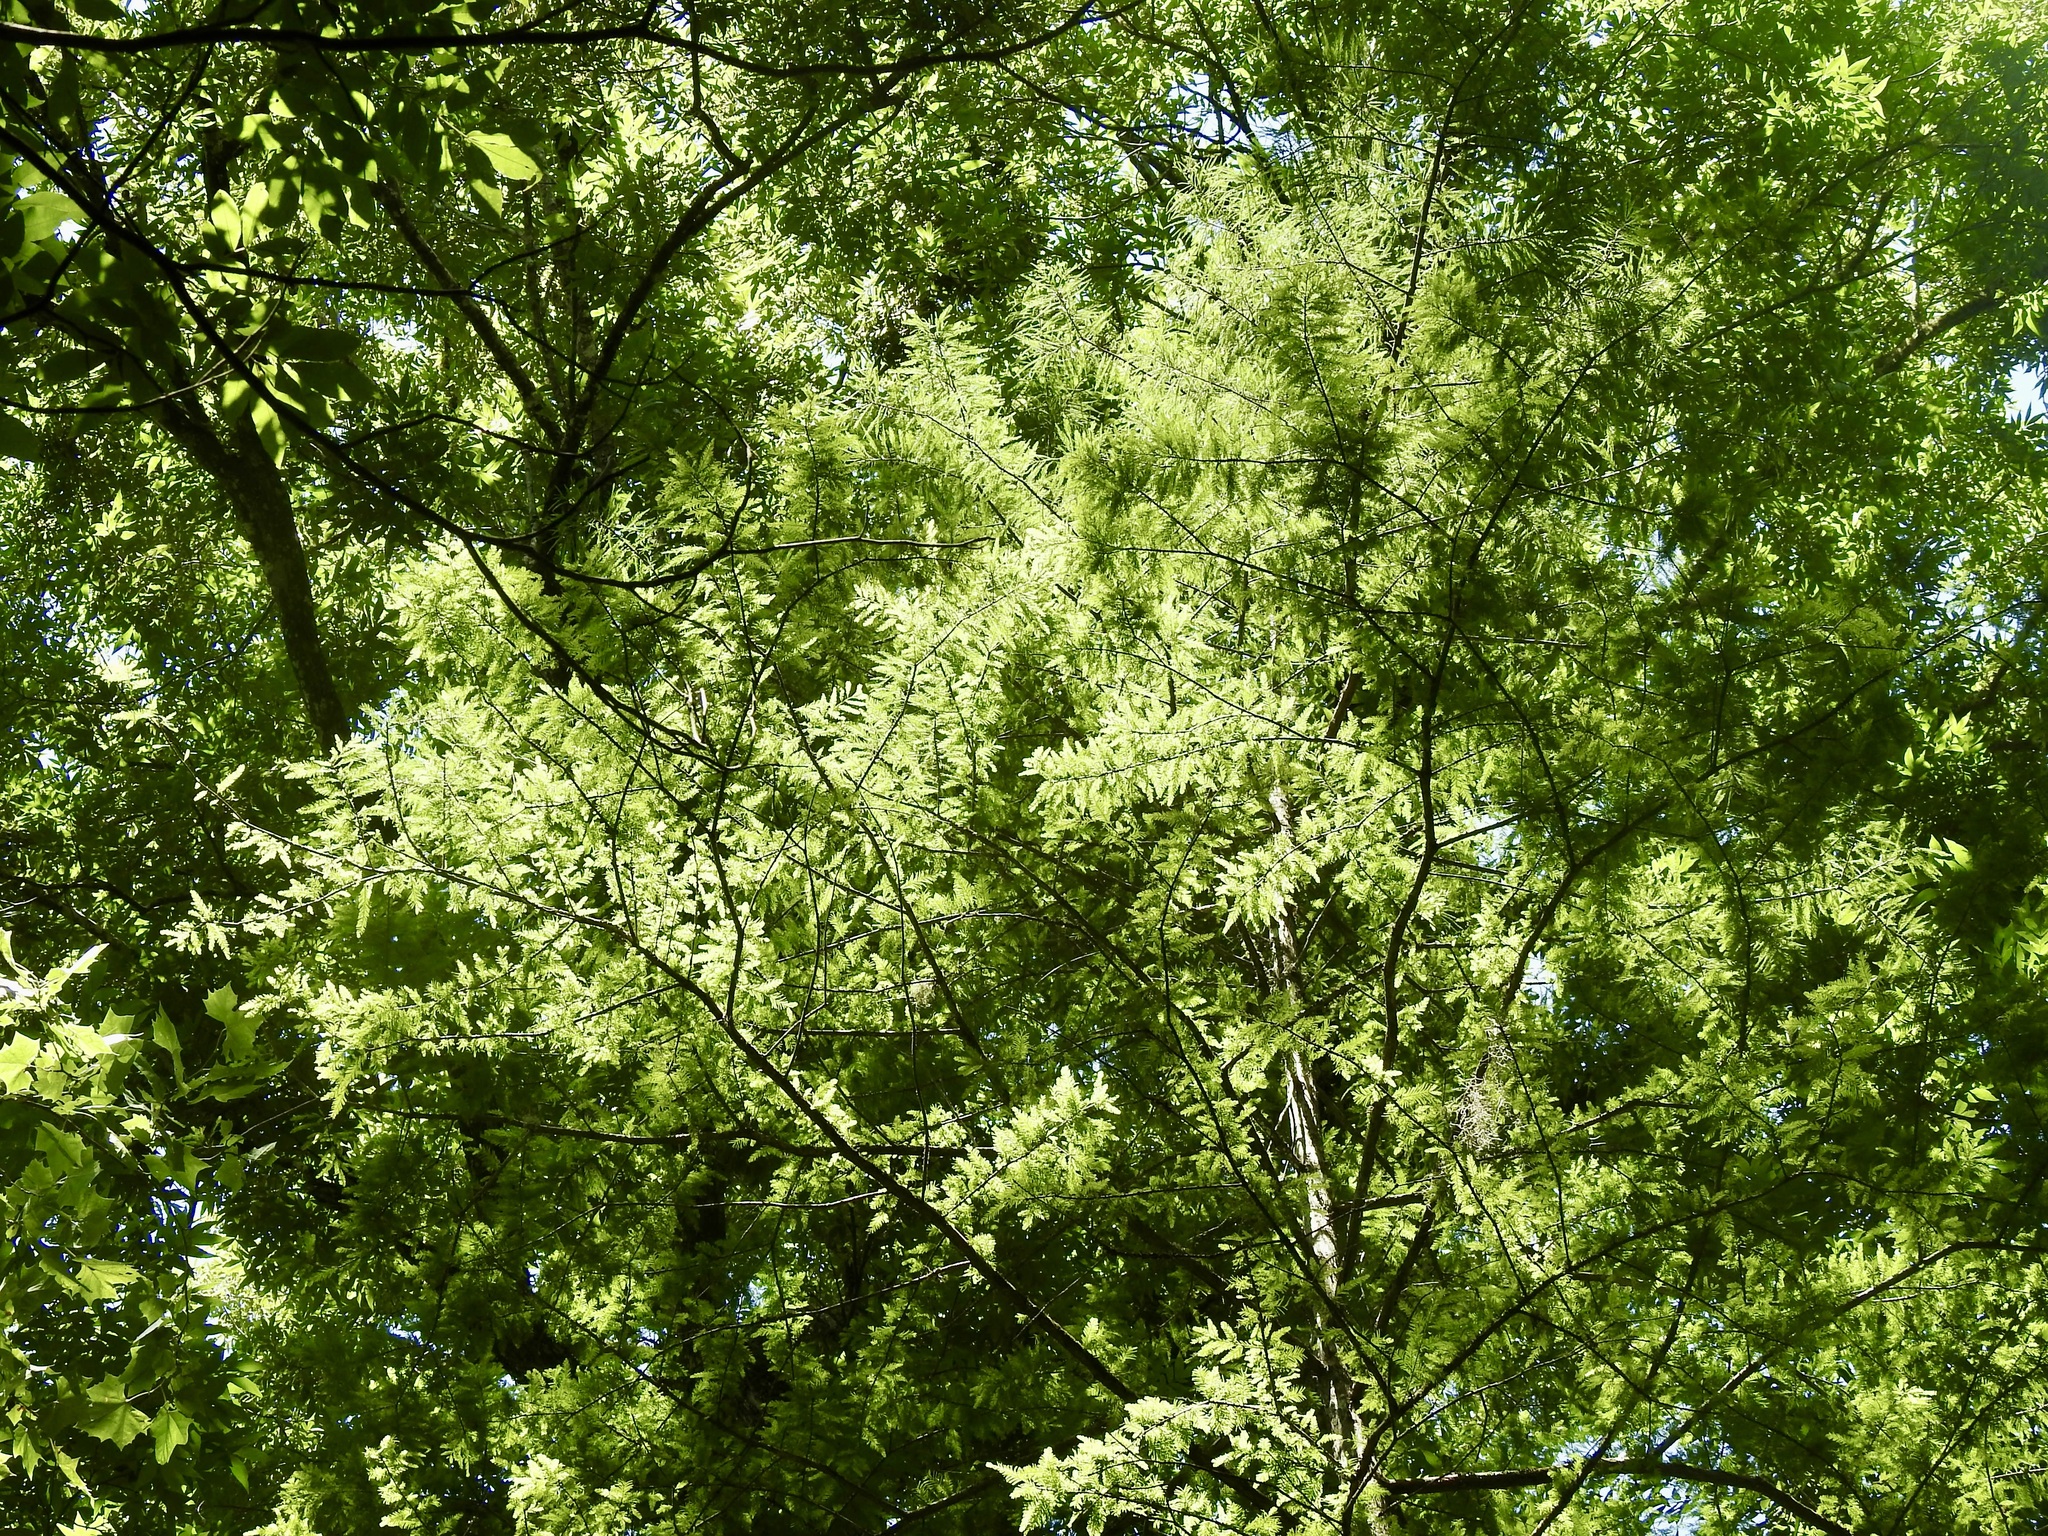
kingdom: Plantae
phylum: Tracheophyta
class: Pinopsida
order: Pinales
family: Cupressaceae
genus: Taxodium
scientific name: Taxodium distichum
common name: Bald cypress
